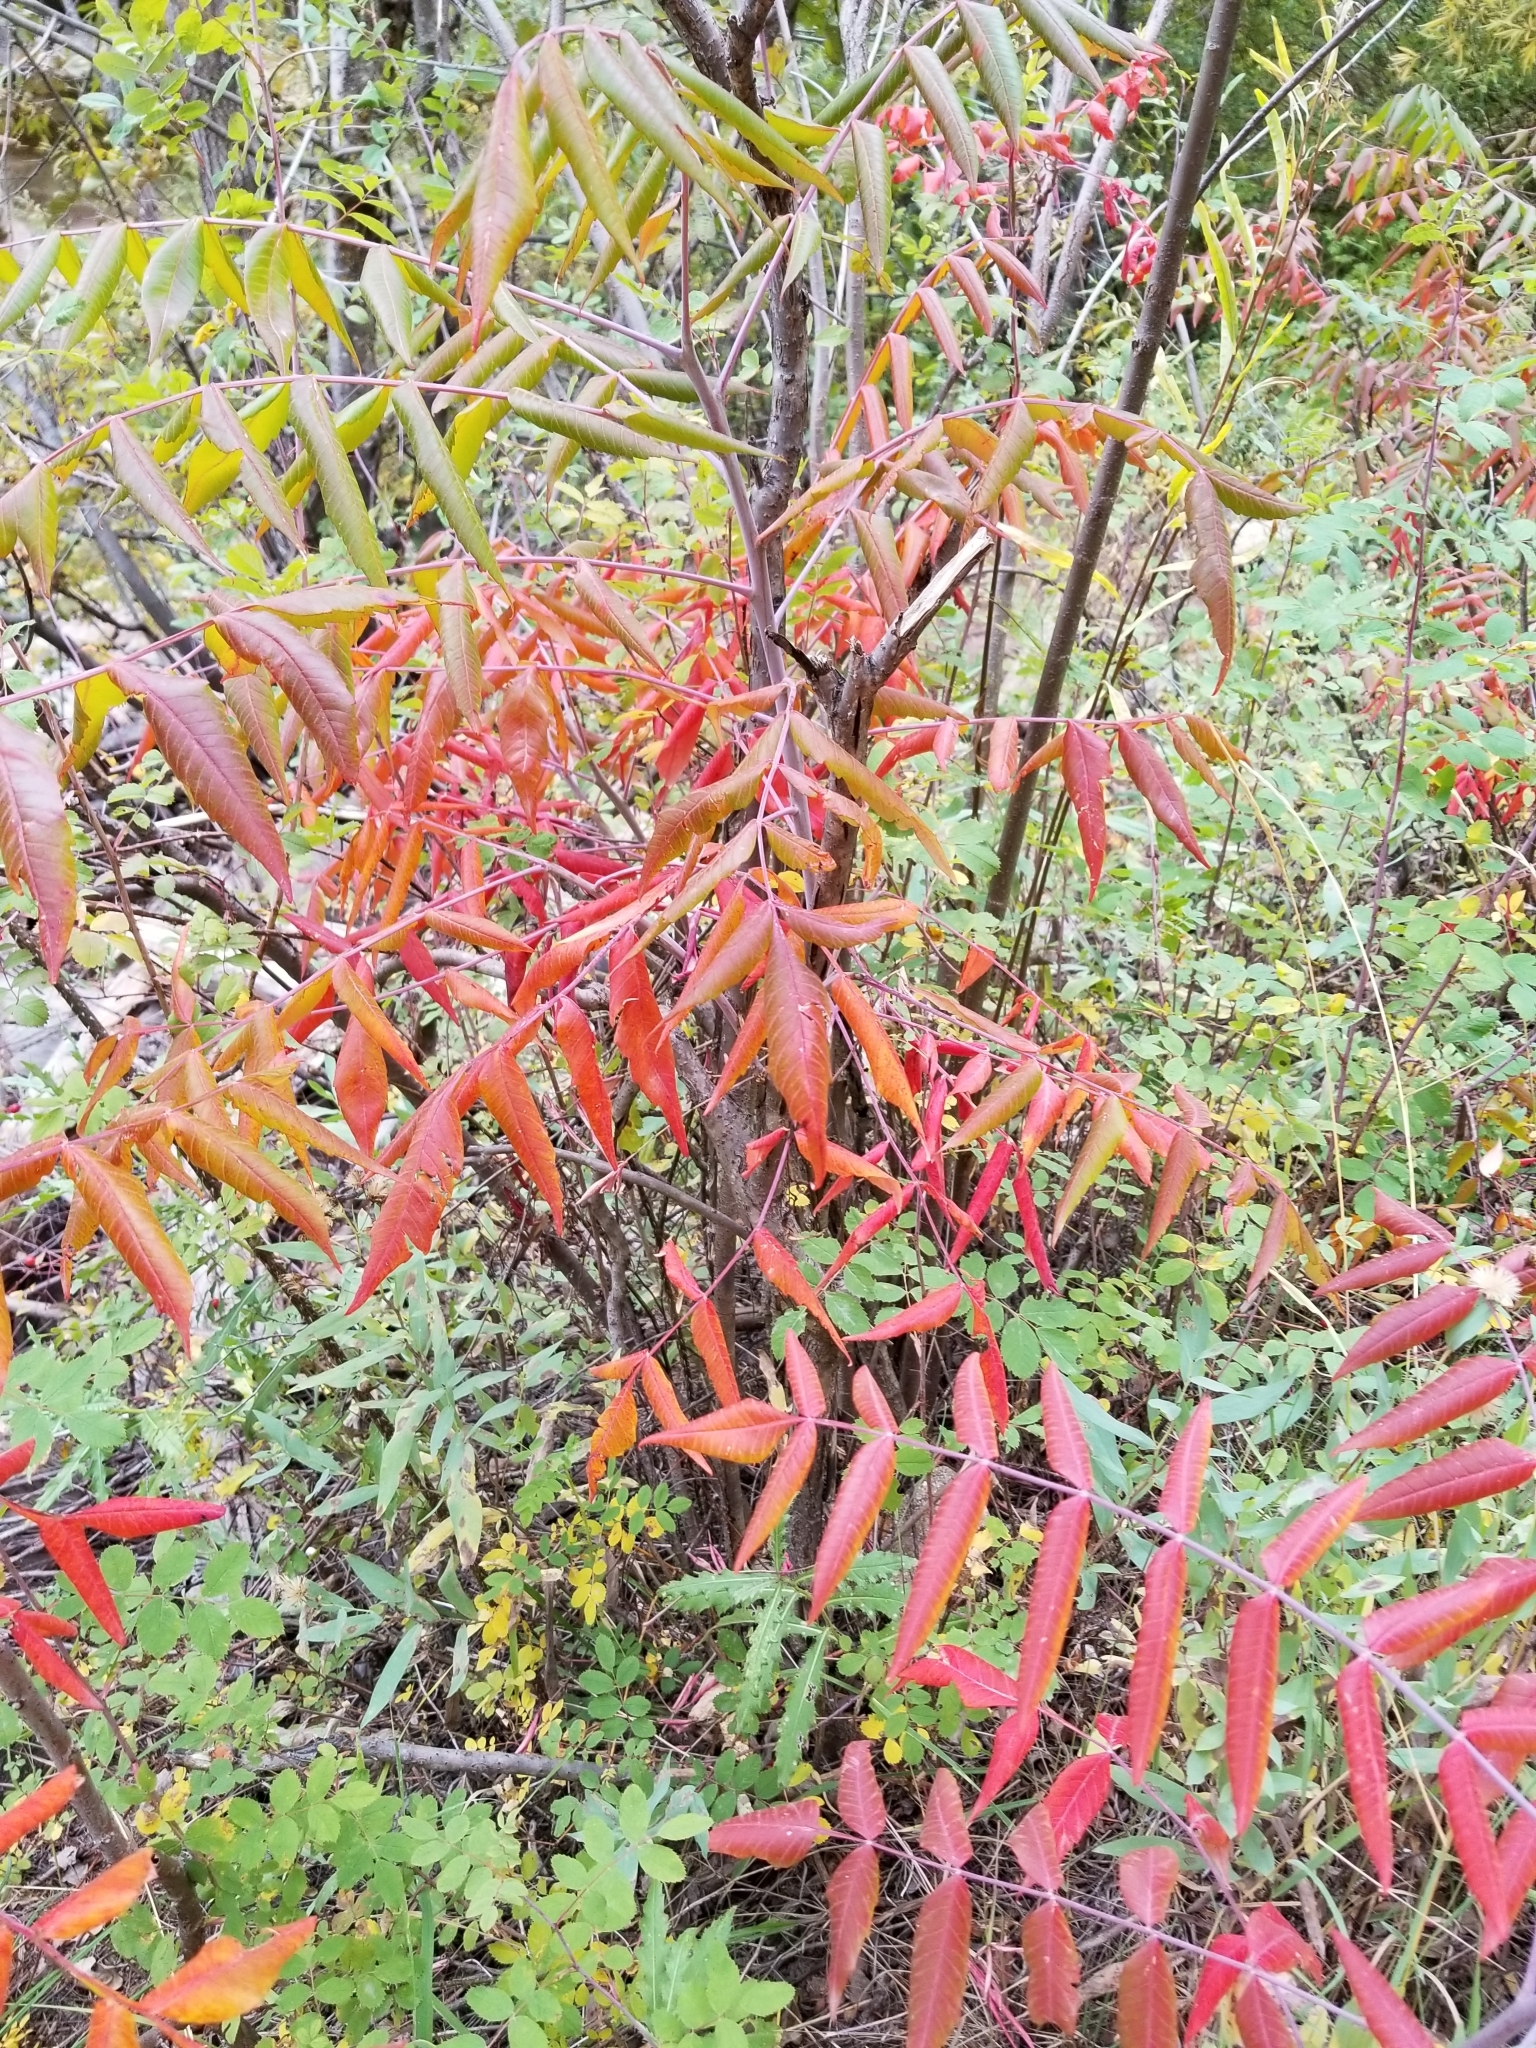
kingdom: Plantae
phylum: Tracheophyta
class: Magnoliopsida
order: Sapindales
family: Anacardiaceae
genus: Rhus
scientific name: Rhus glabra
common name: Scarlet sumac
